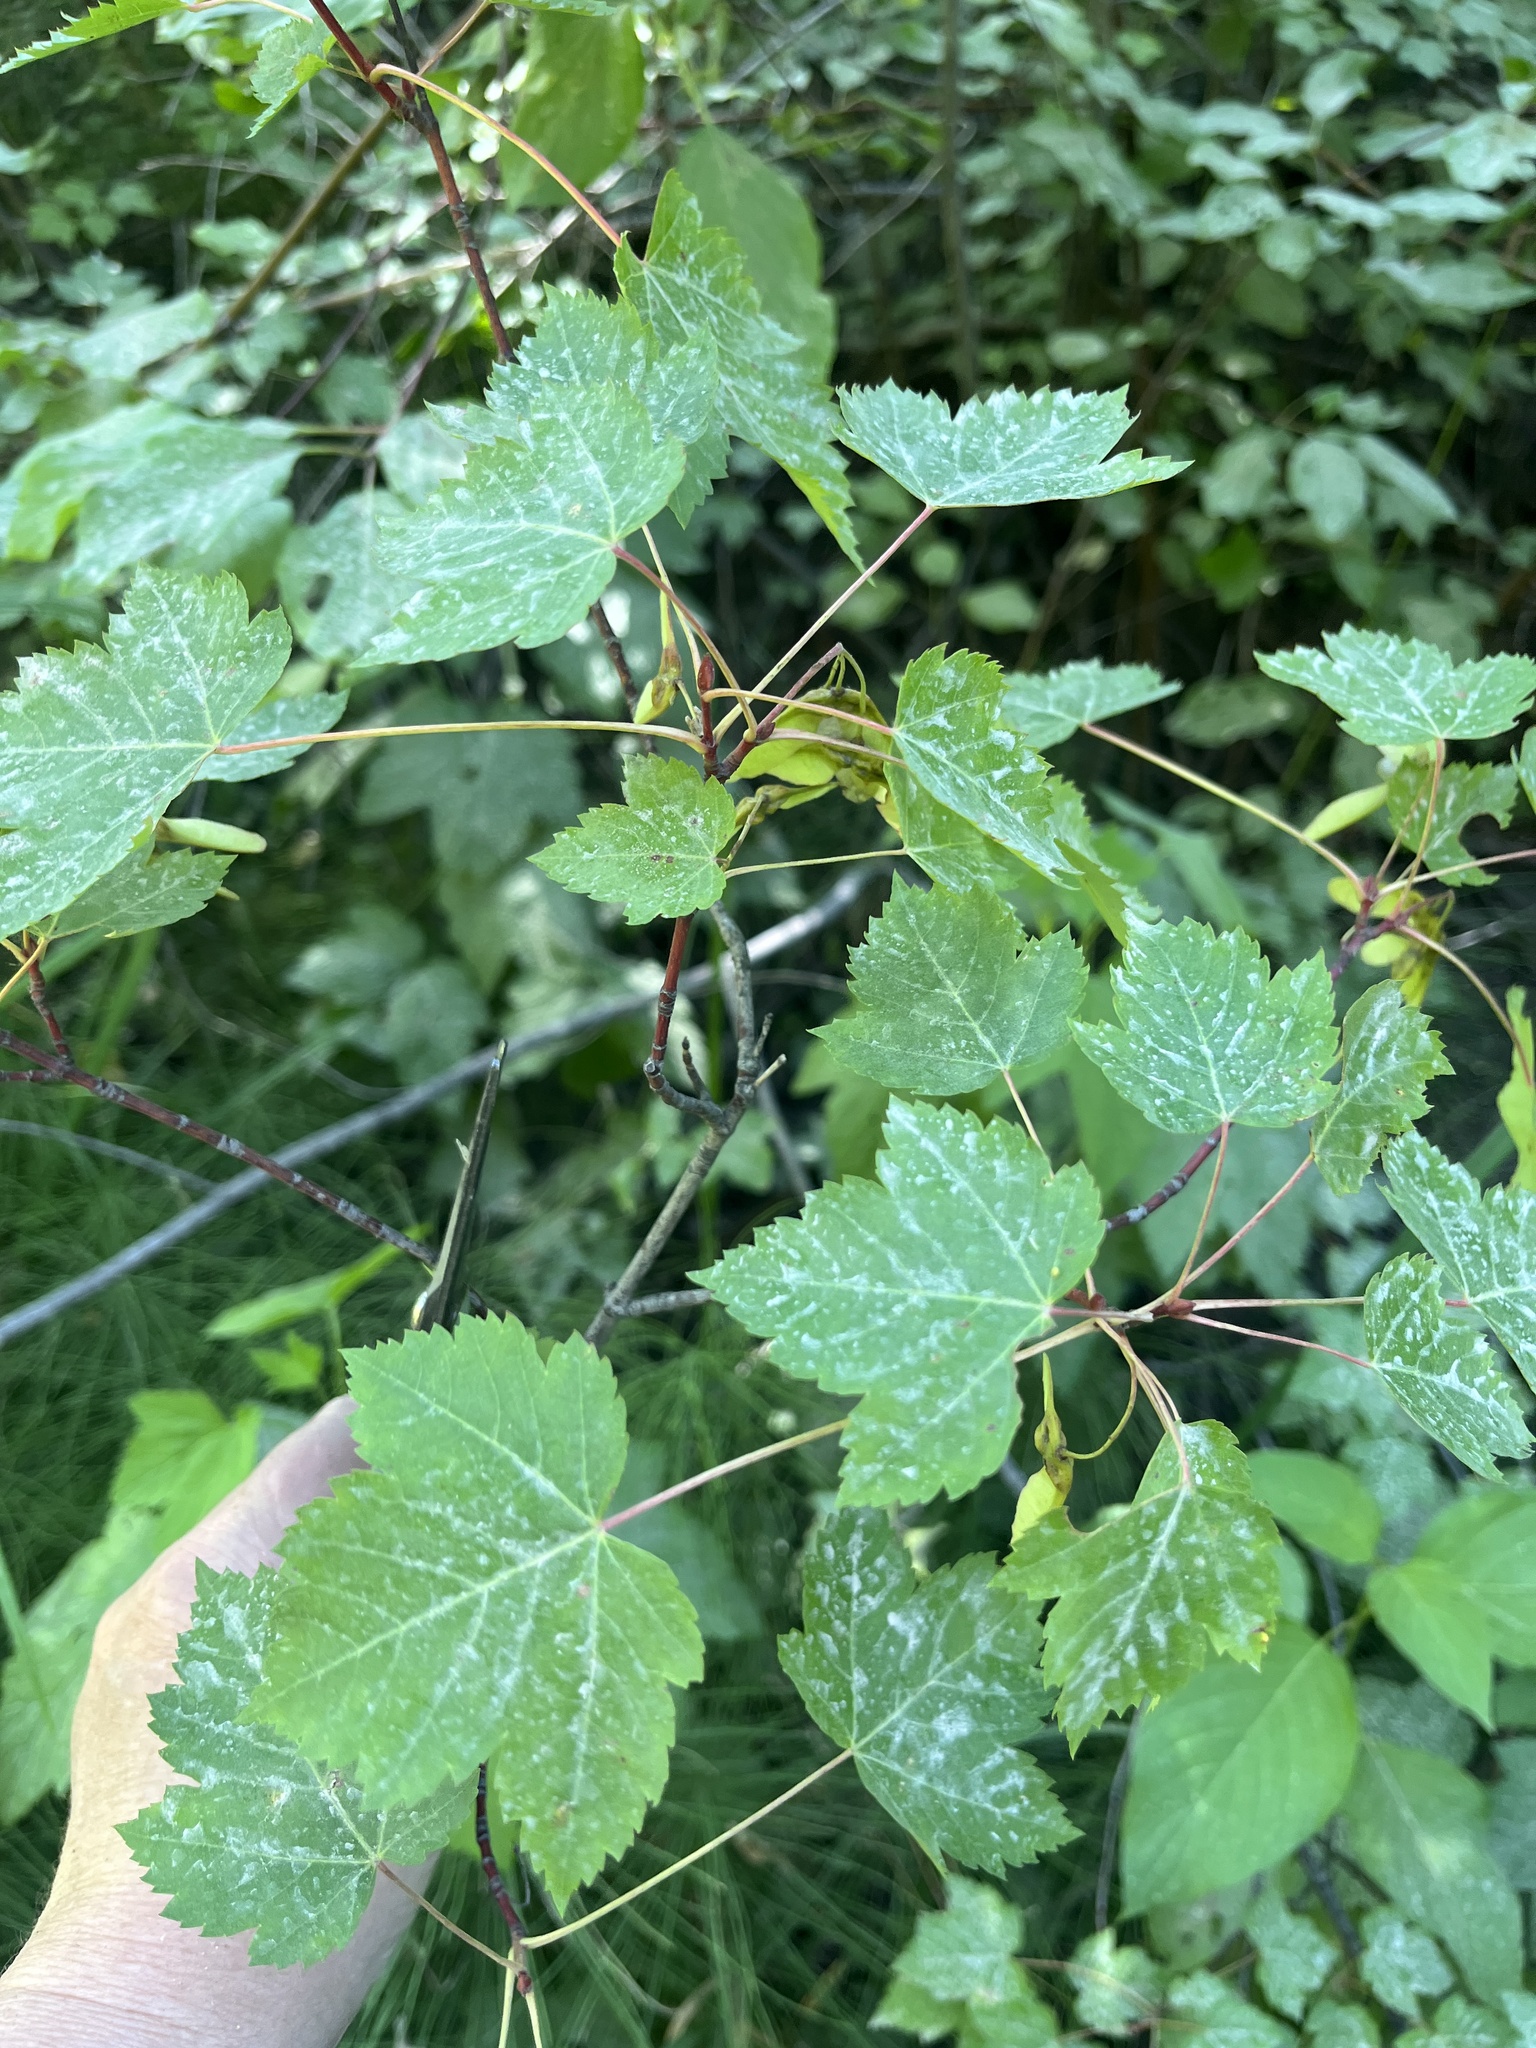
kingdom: Plantae
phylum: Tracheophyta
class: Magnoliopsida
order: Sapindales
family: Sapindaceae
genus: Acer
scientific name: Acer glabrum
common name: Rocky mountain maple
